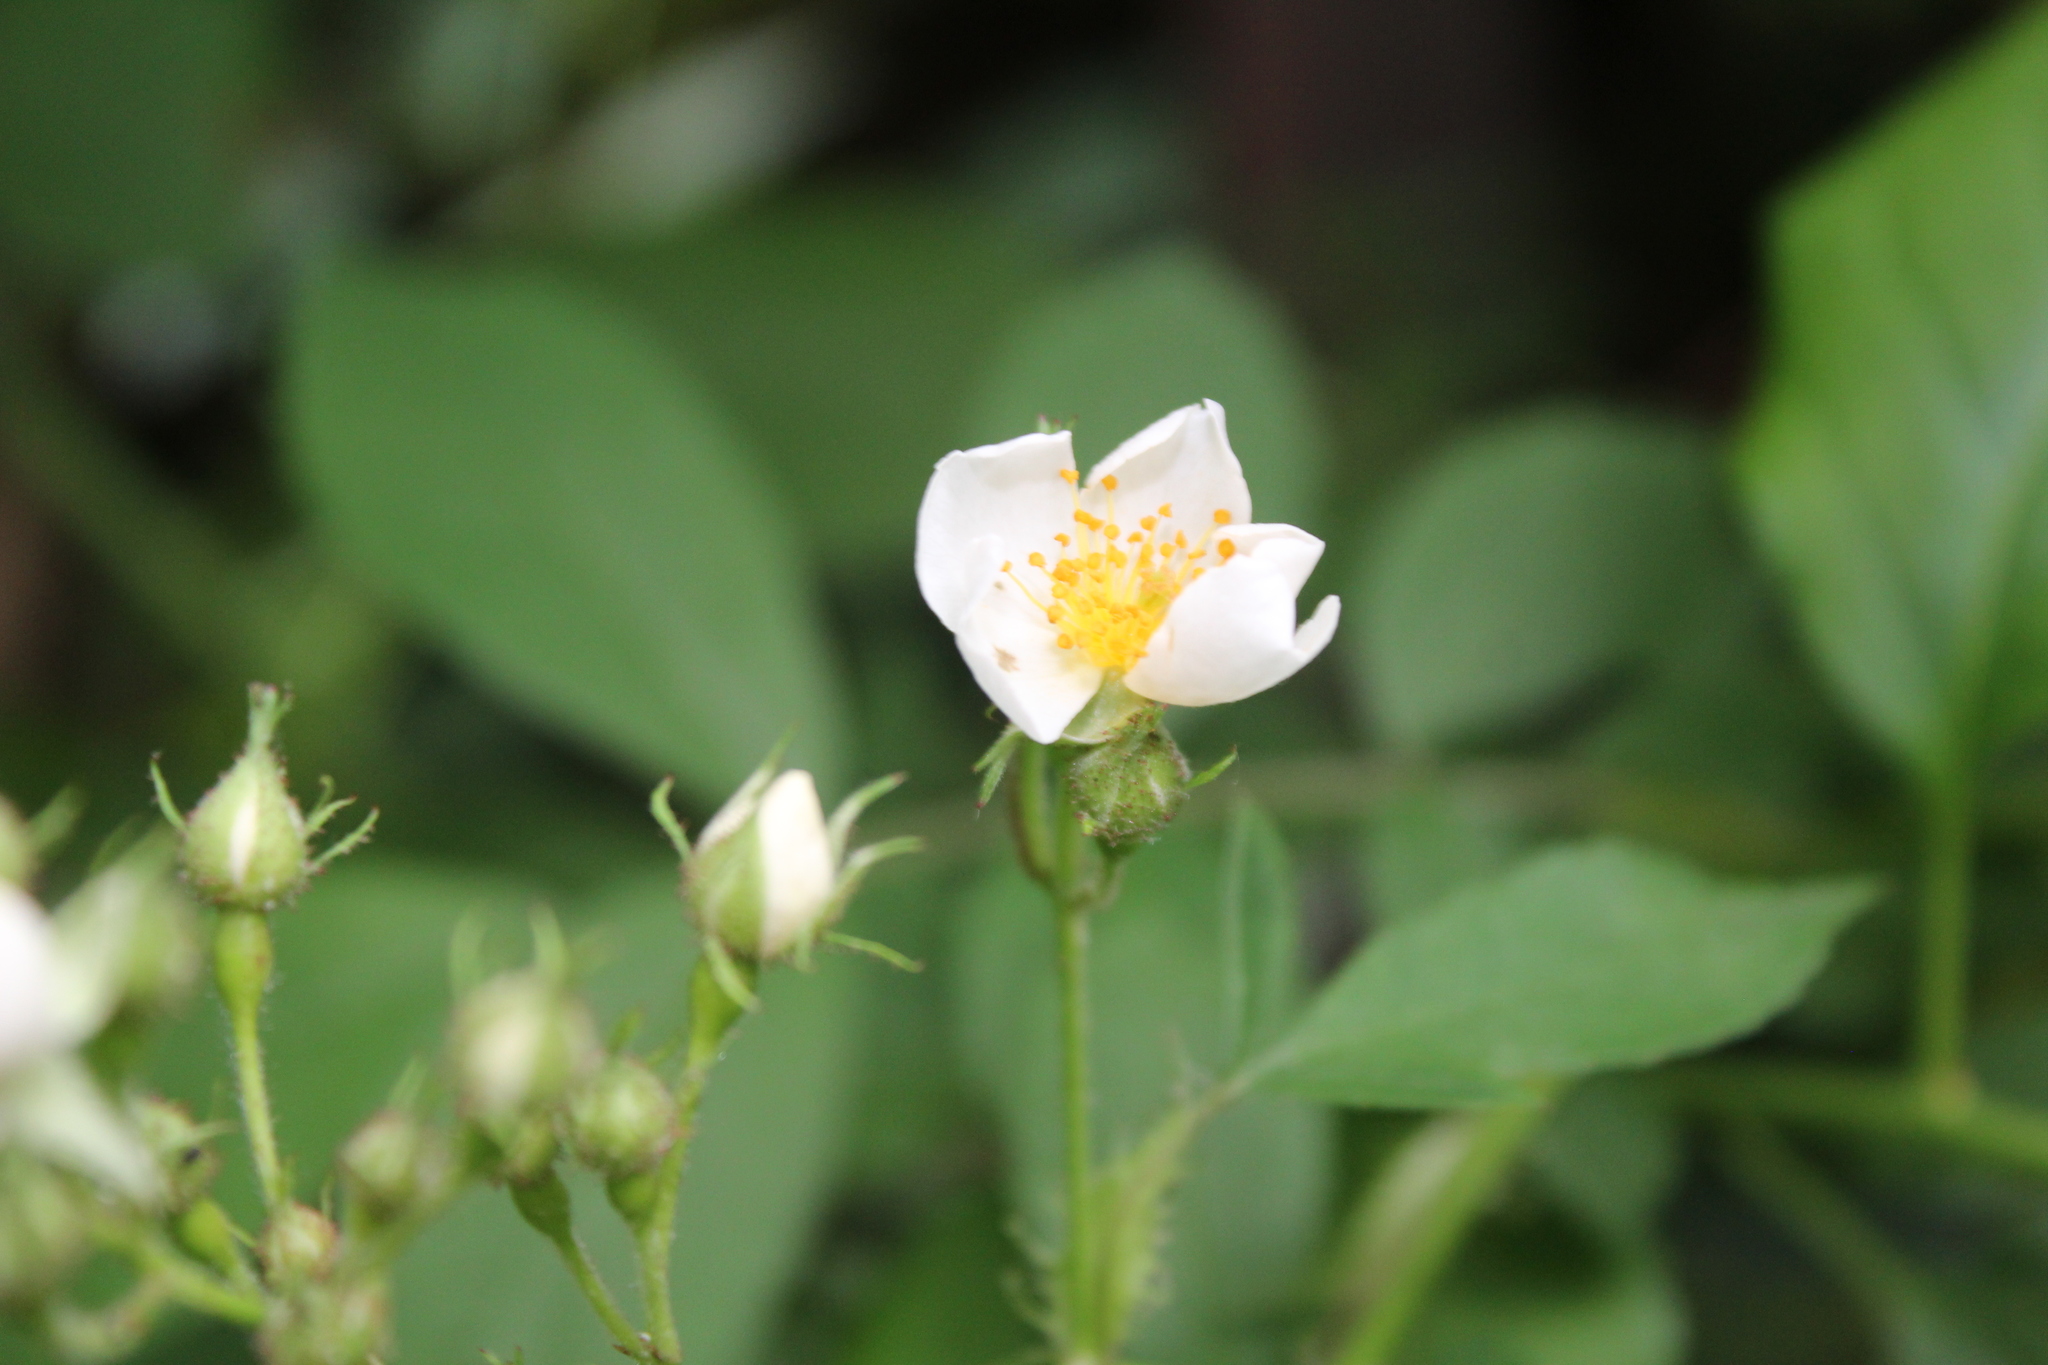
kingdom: Plantae
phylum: Tracheophyta
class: Magnoliopsida
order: Rosales
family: Rosaceae
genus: Rosa
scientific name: Rosa multiflora
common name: Multiflora rose
